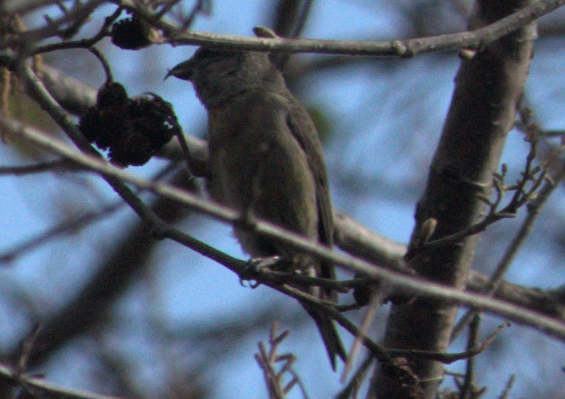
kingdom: Animalia
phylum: Chordata
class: Aves
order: Passeriformes
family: Fringillidae
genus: Loxia
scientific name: Loxia curvirostra
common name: Red crossbill
